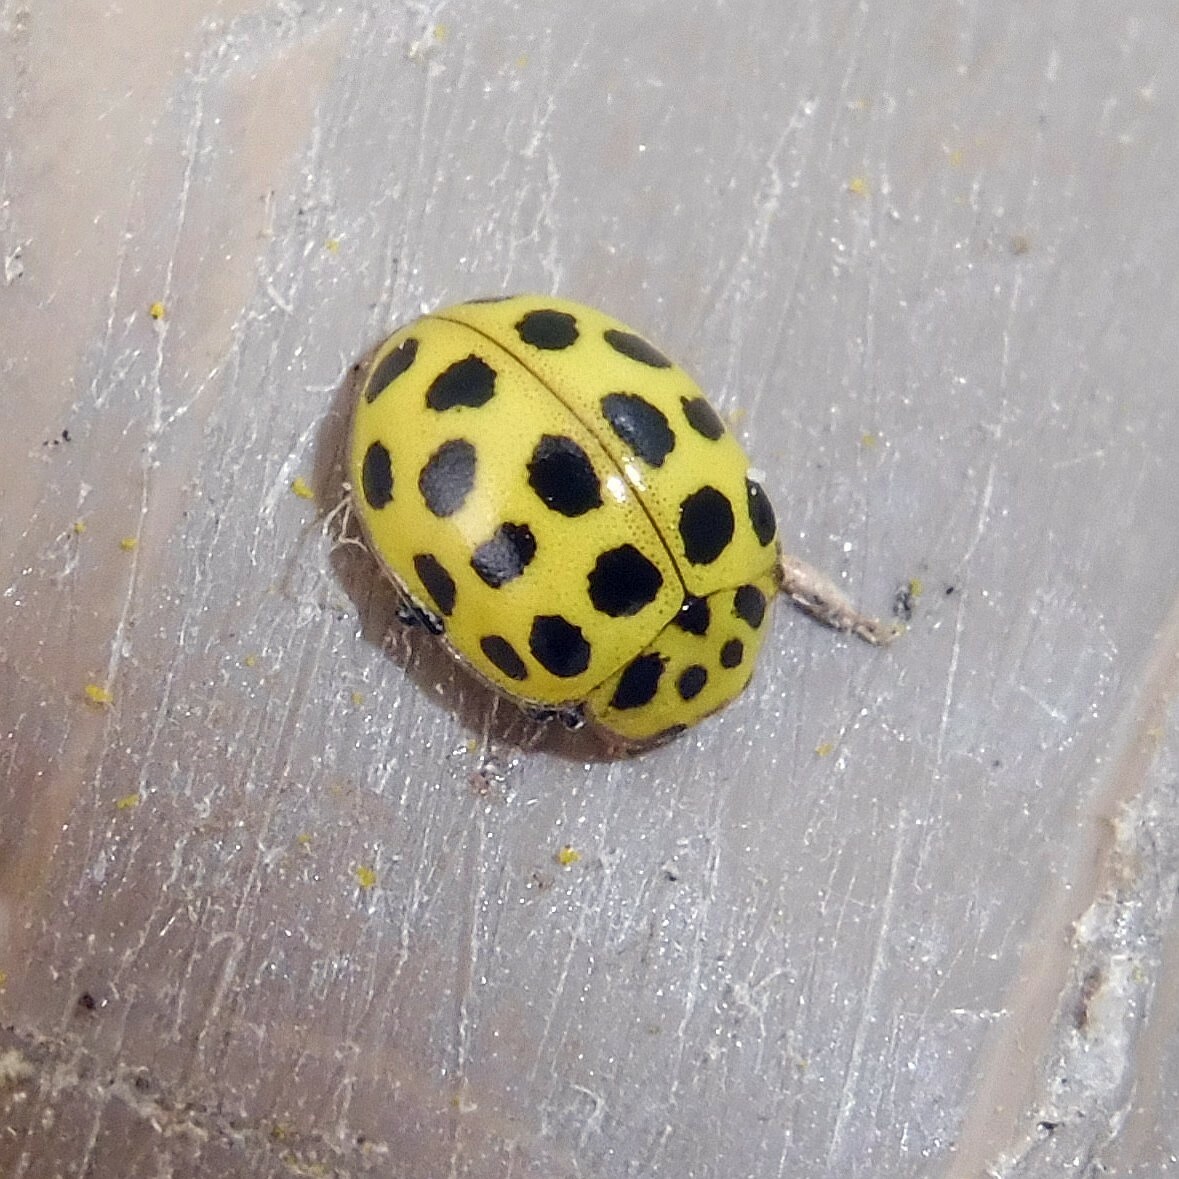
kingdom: Animalia
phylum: Arthropoda
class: Insecta
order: Coleoptera
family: Coccinellidae
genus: Psyllobora
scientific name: Psyllobora vigintiduopunctata
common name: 22-spot ladybird
